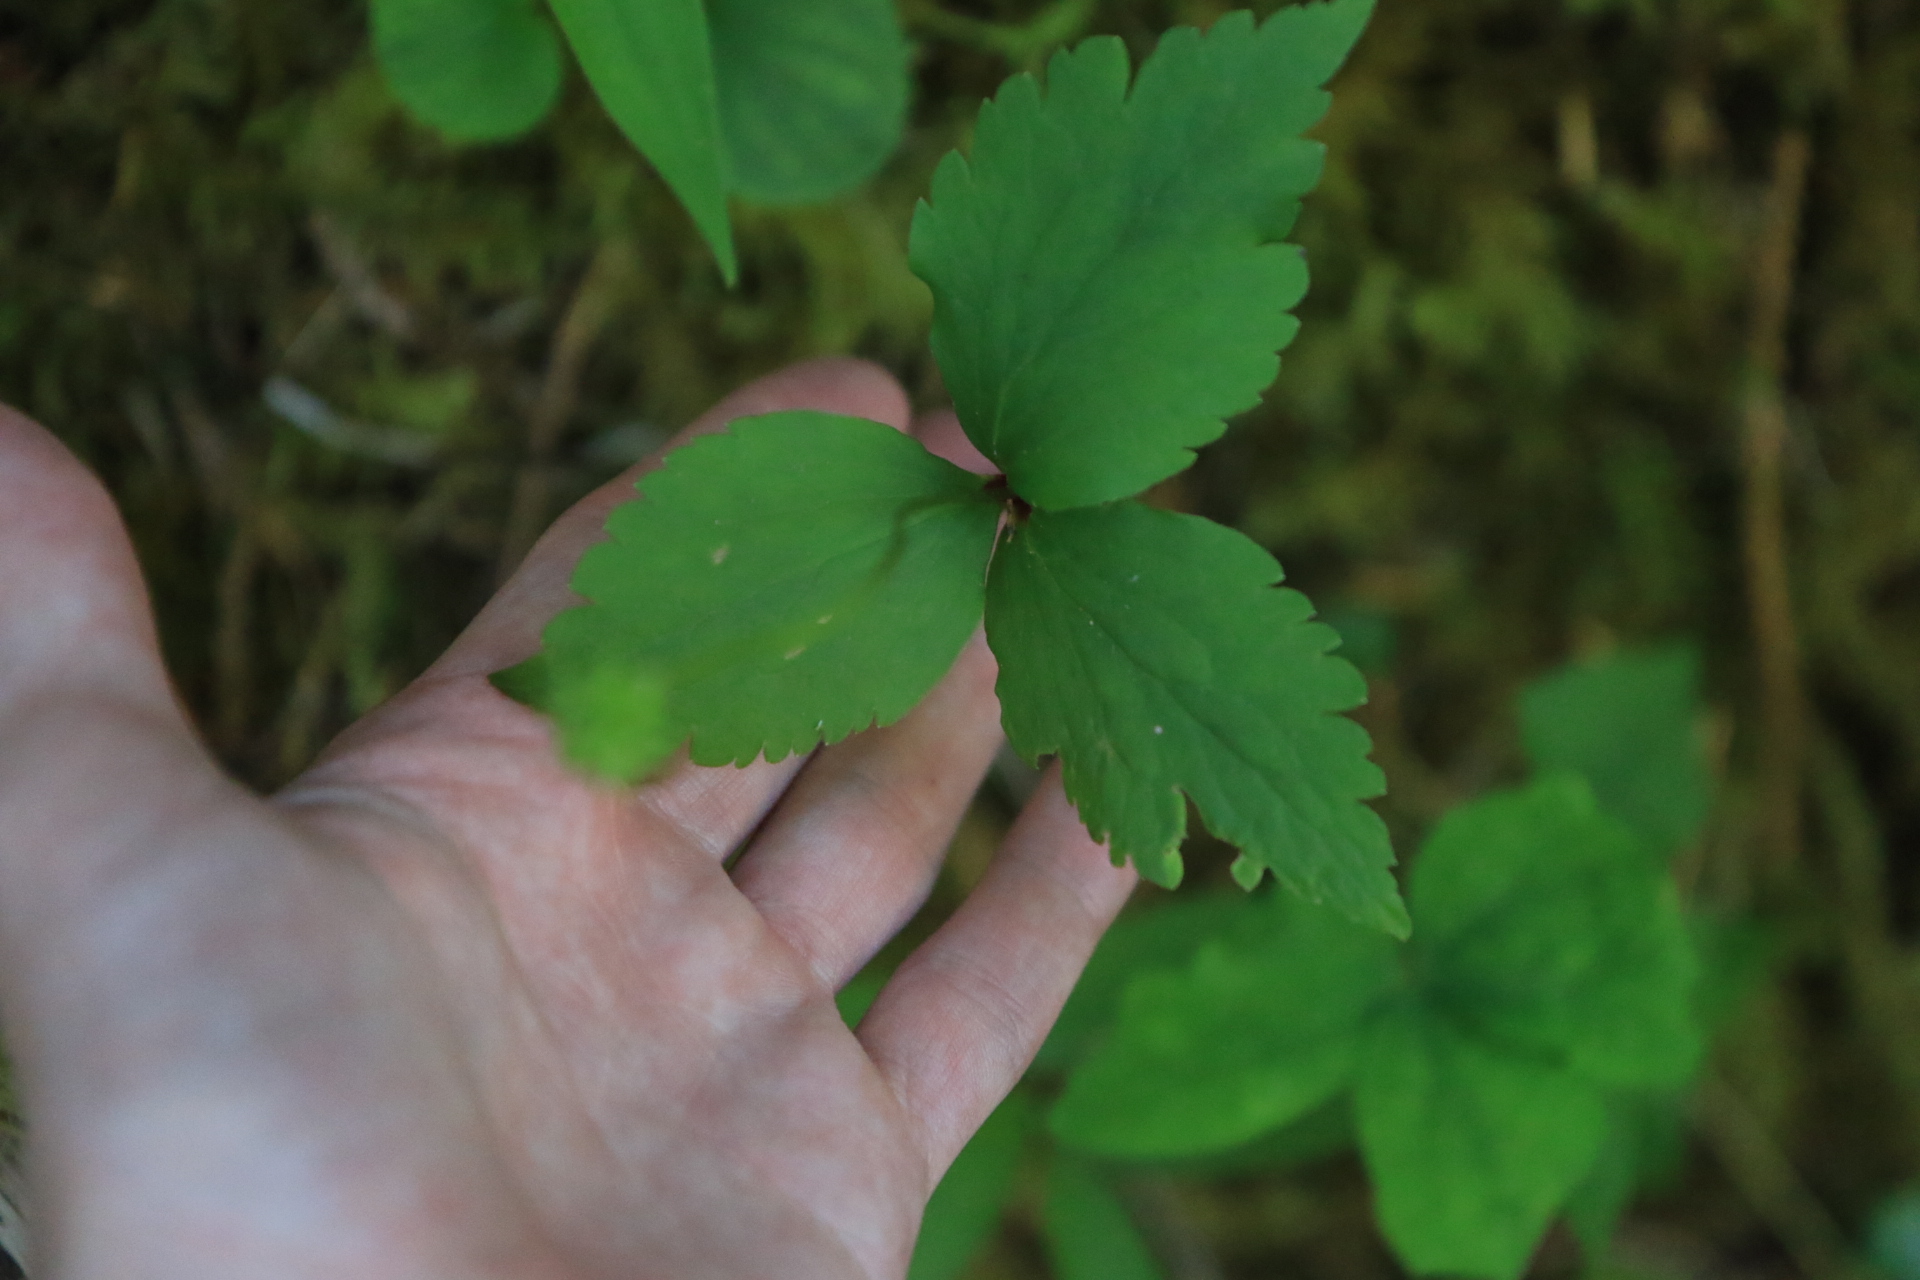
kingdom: Plantae
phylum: Tracheophyta
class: Magnoliopsida
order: Ranunculales
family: Ranunculaceae
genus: Anemonastrum
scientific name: Anemonastrum deltoideum
